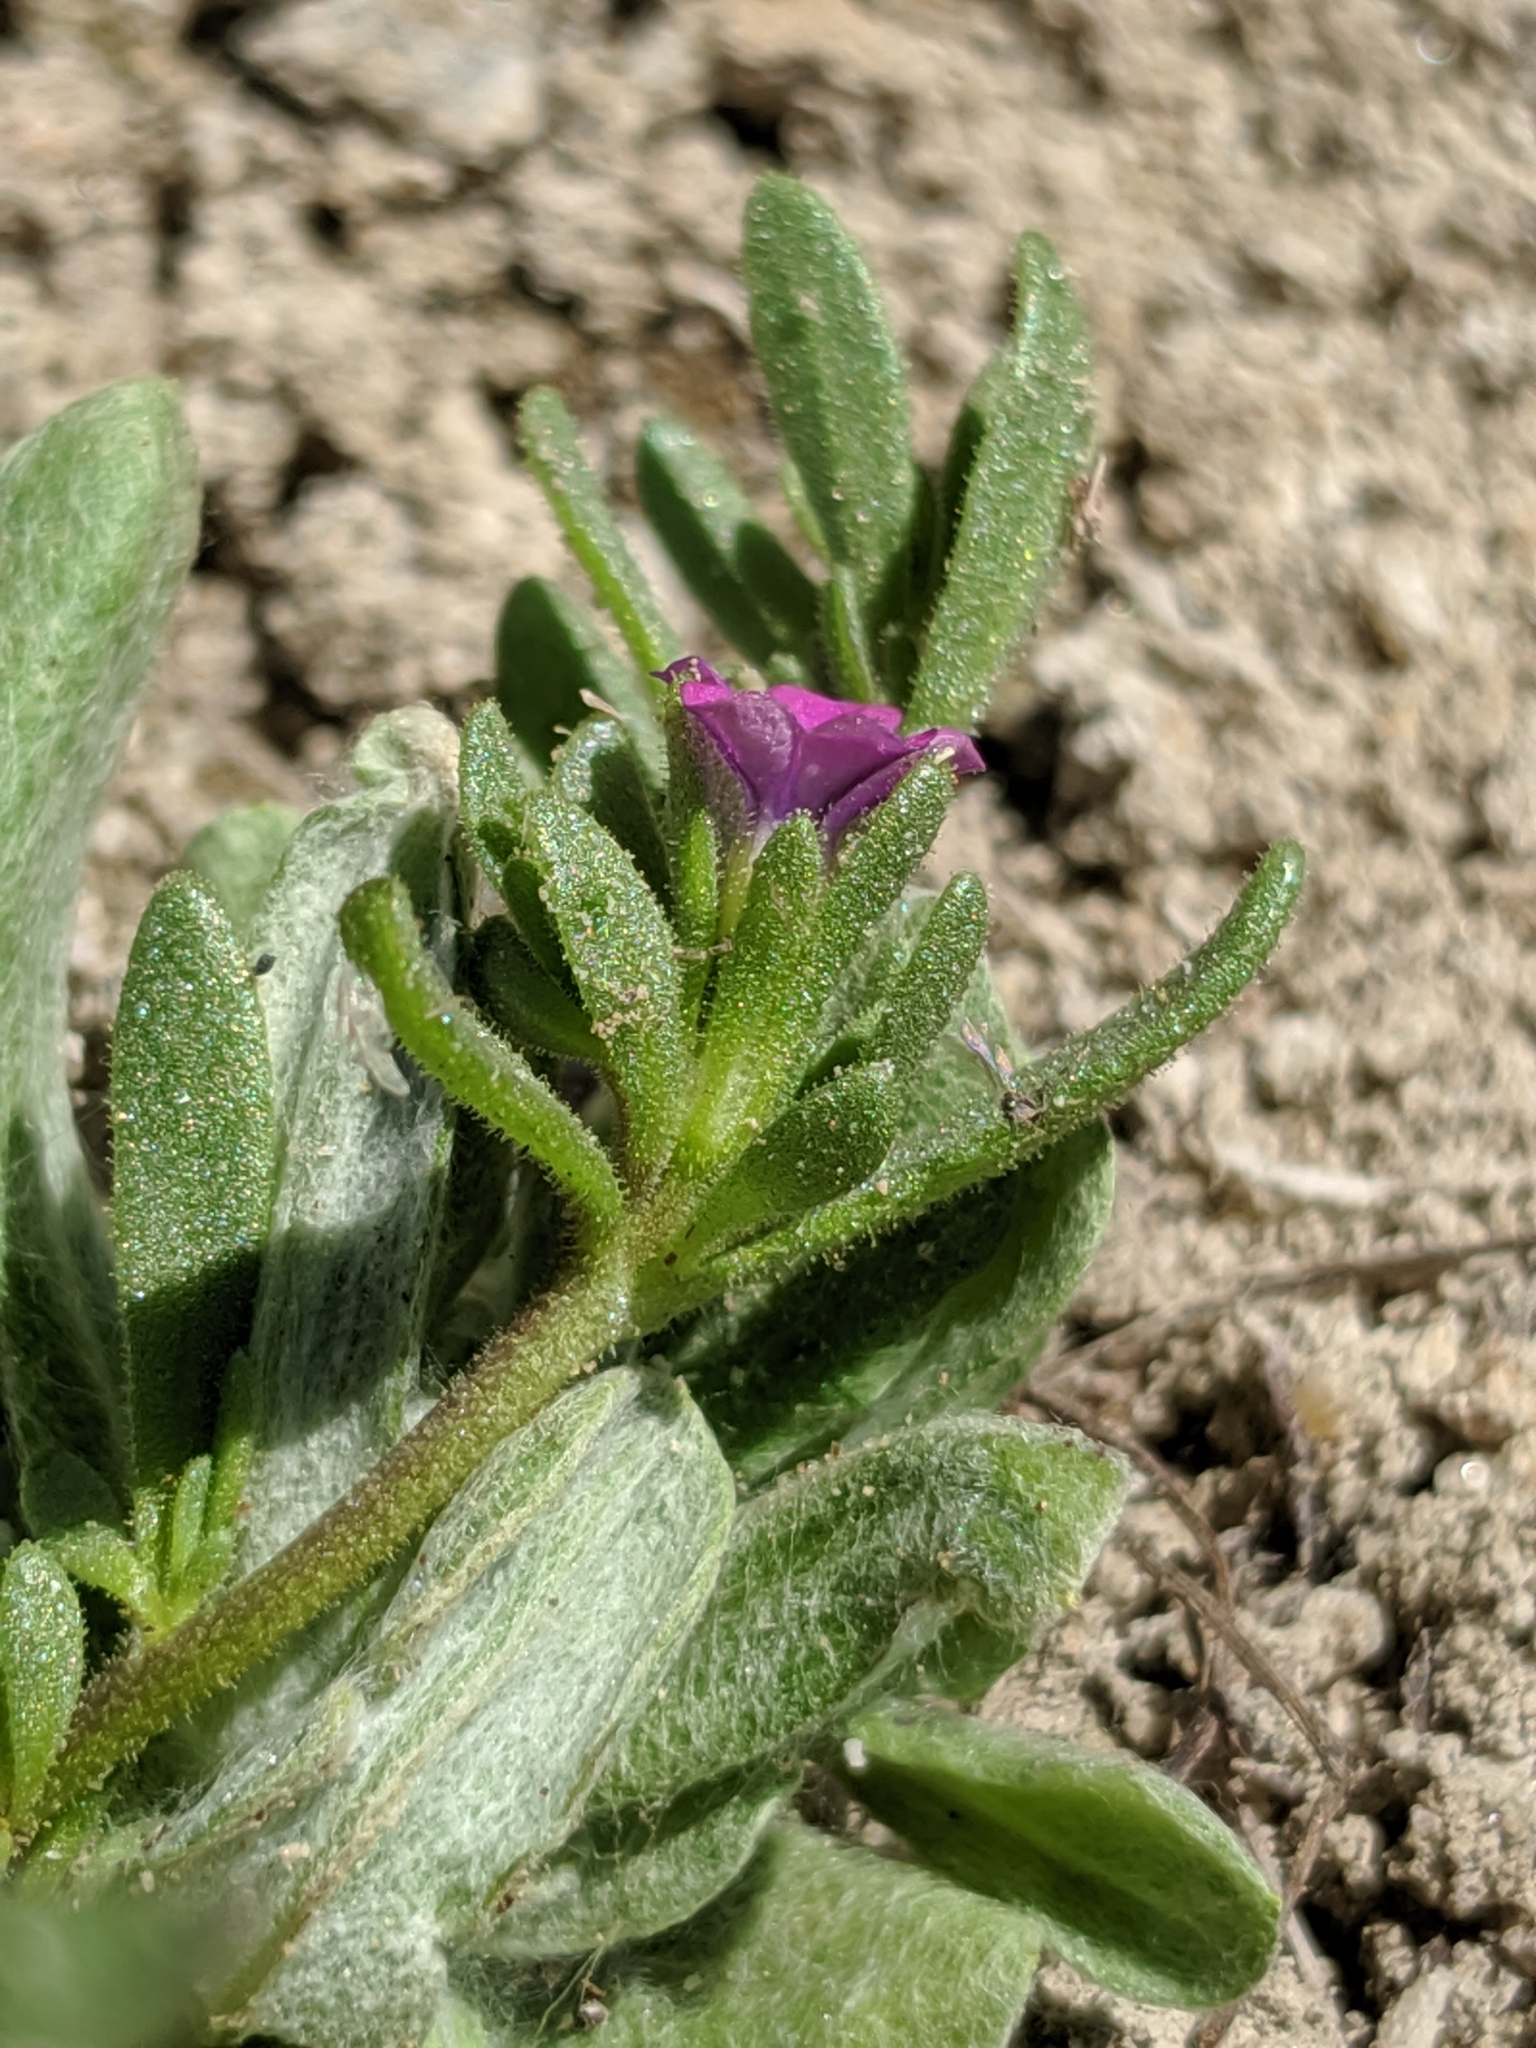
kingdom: Plantae
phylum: Tracheophyta
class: Magnoliopsida
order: Solanales
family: Solanaceae
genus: Calibrachoa
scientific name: Calibrachoa parviflora
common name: Seaside petunia
